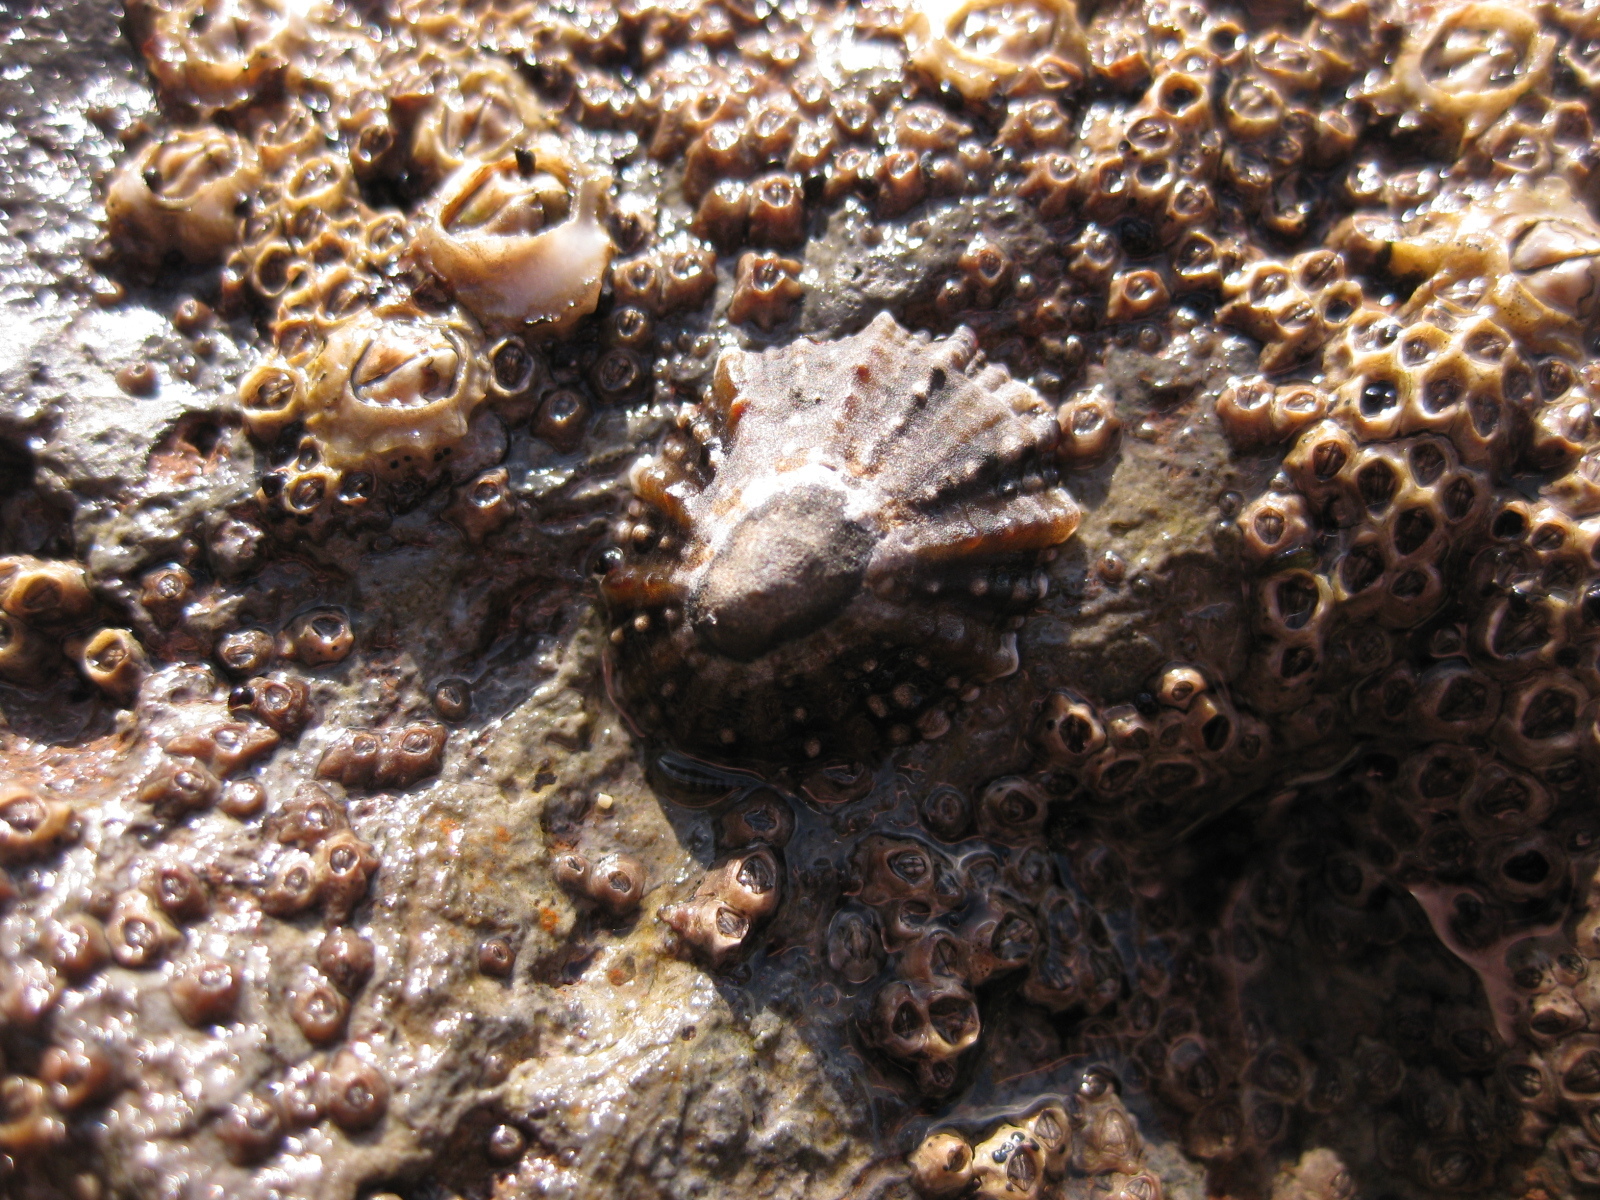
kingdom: Animalia
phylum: Mollusca
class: Gastropoda
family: Nacellidae
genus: Cellana
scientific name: Cellana ornata
